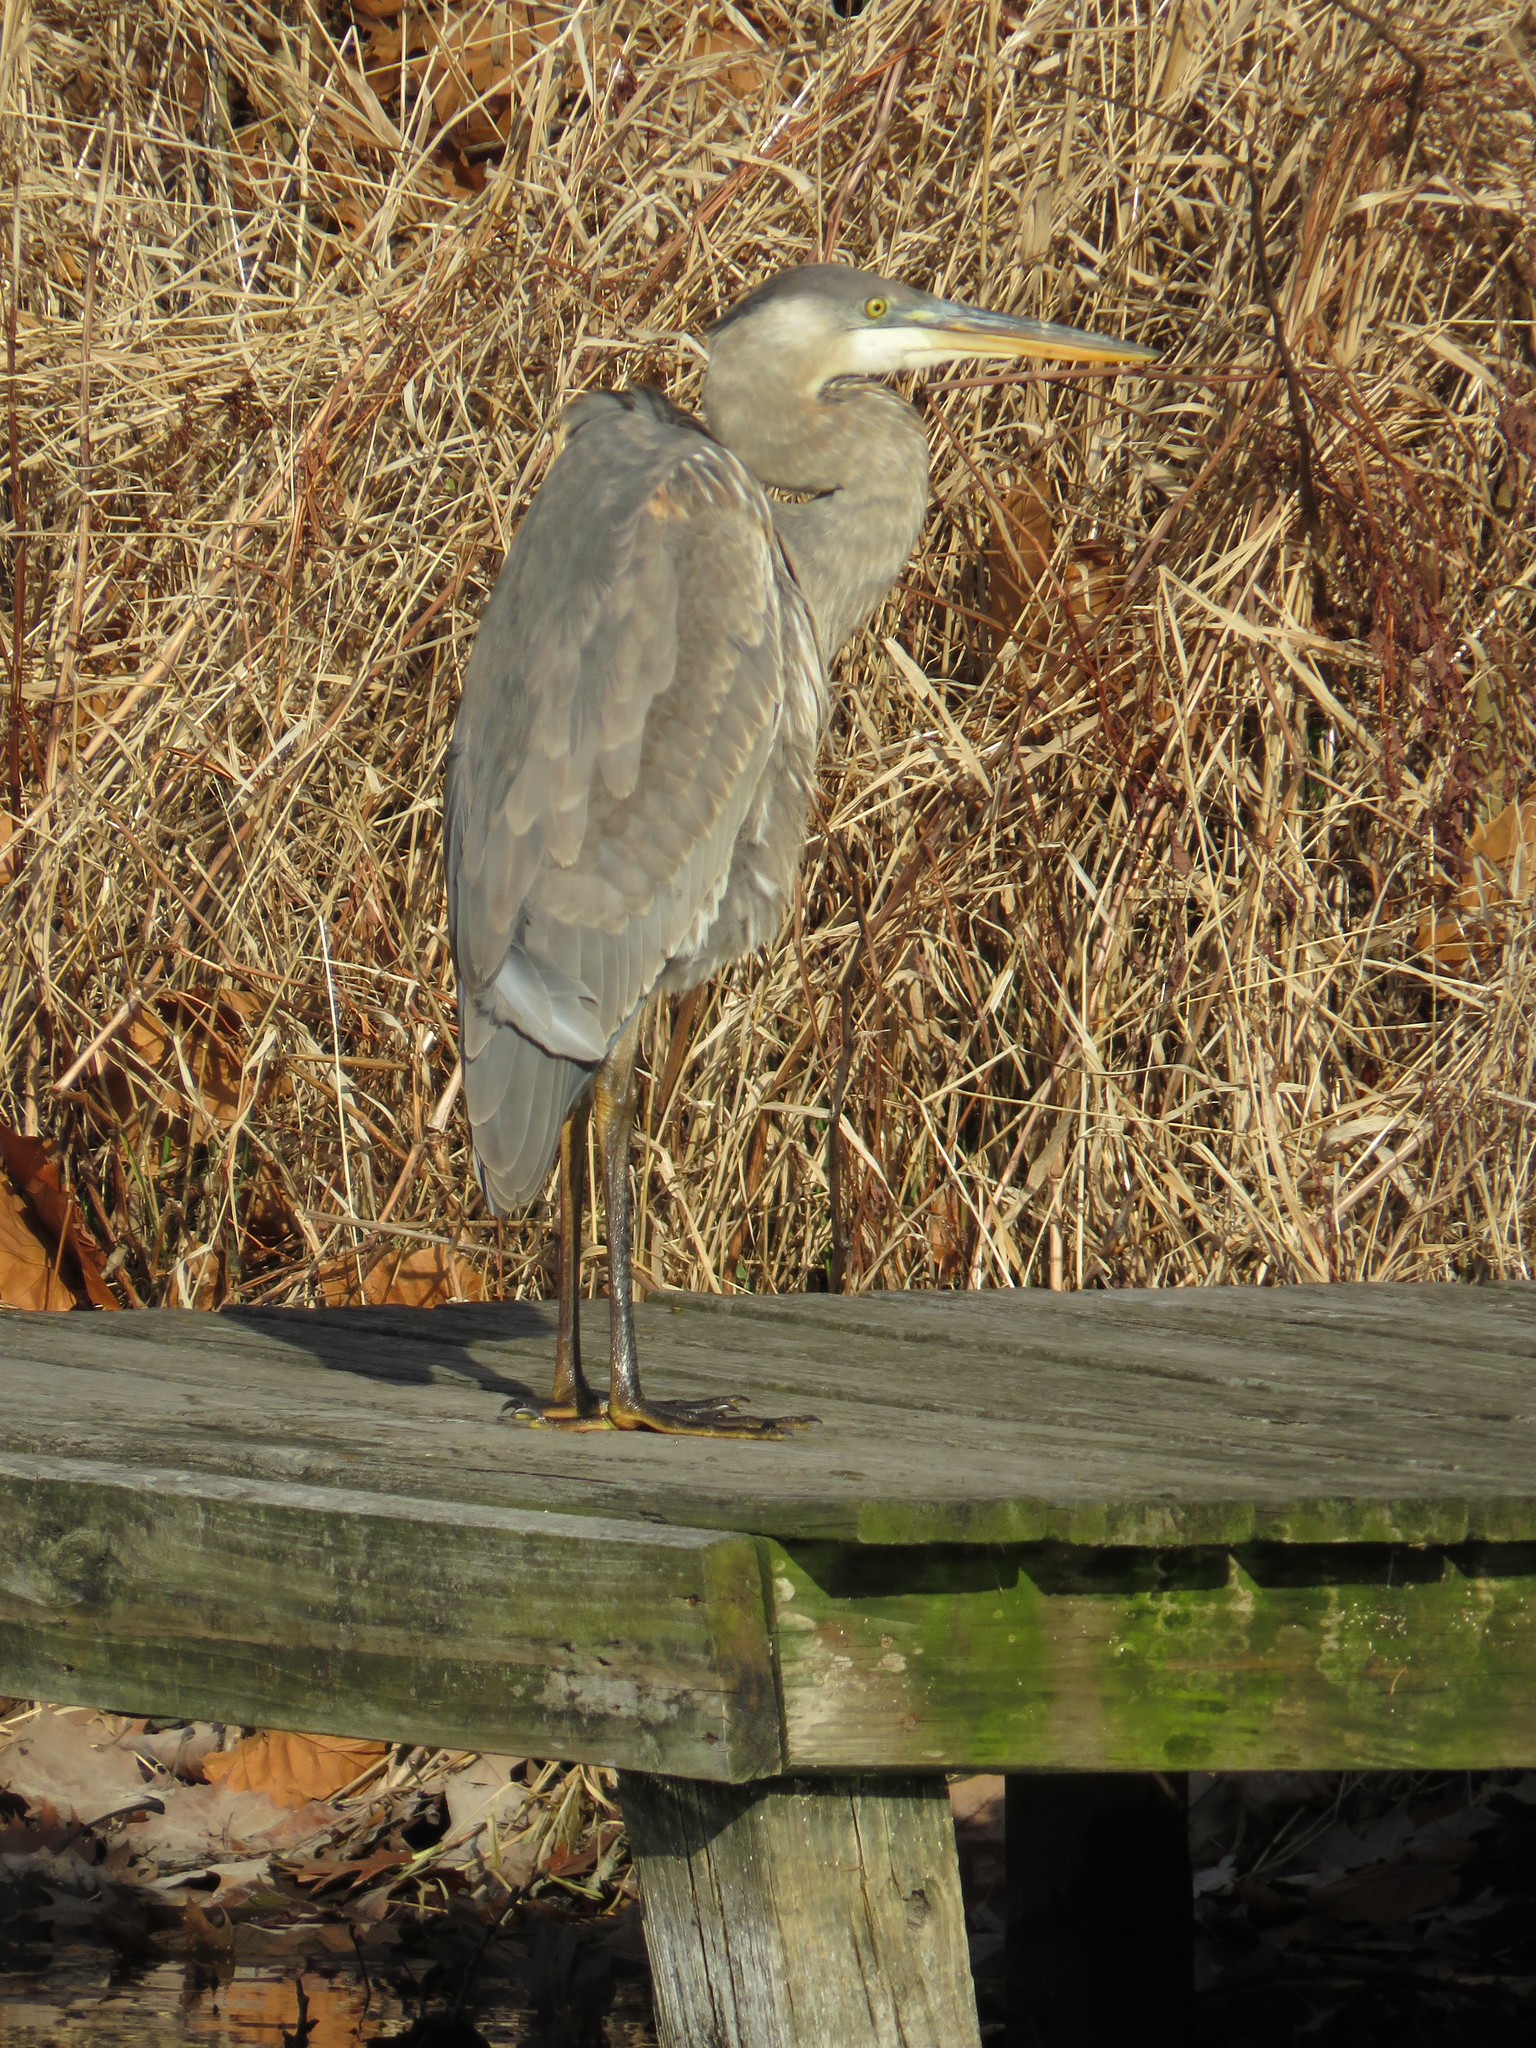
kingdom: Animalia
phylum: Chordata
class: Aves
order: Pelecaniformes
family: Ardeidae
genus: Ardea
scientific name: Ardea herodias
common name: Great blue heron
